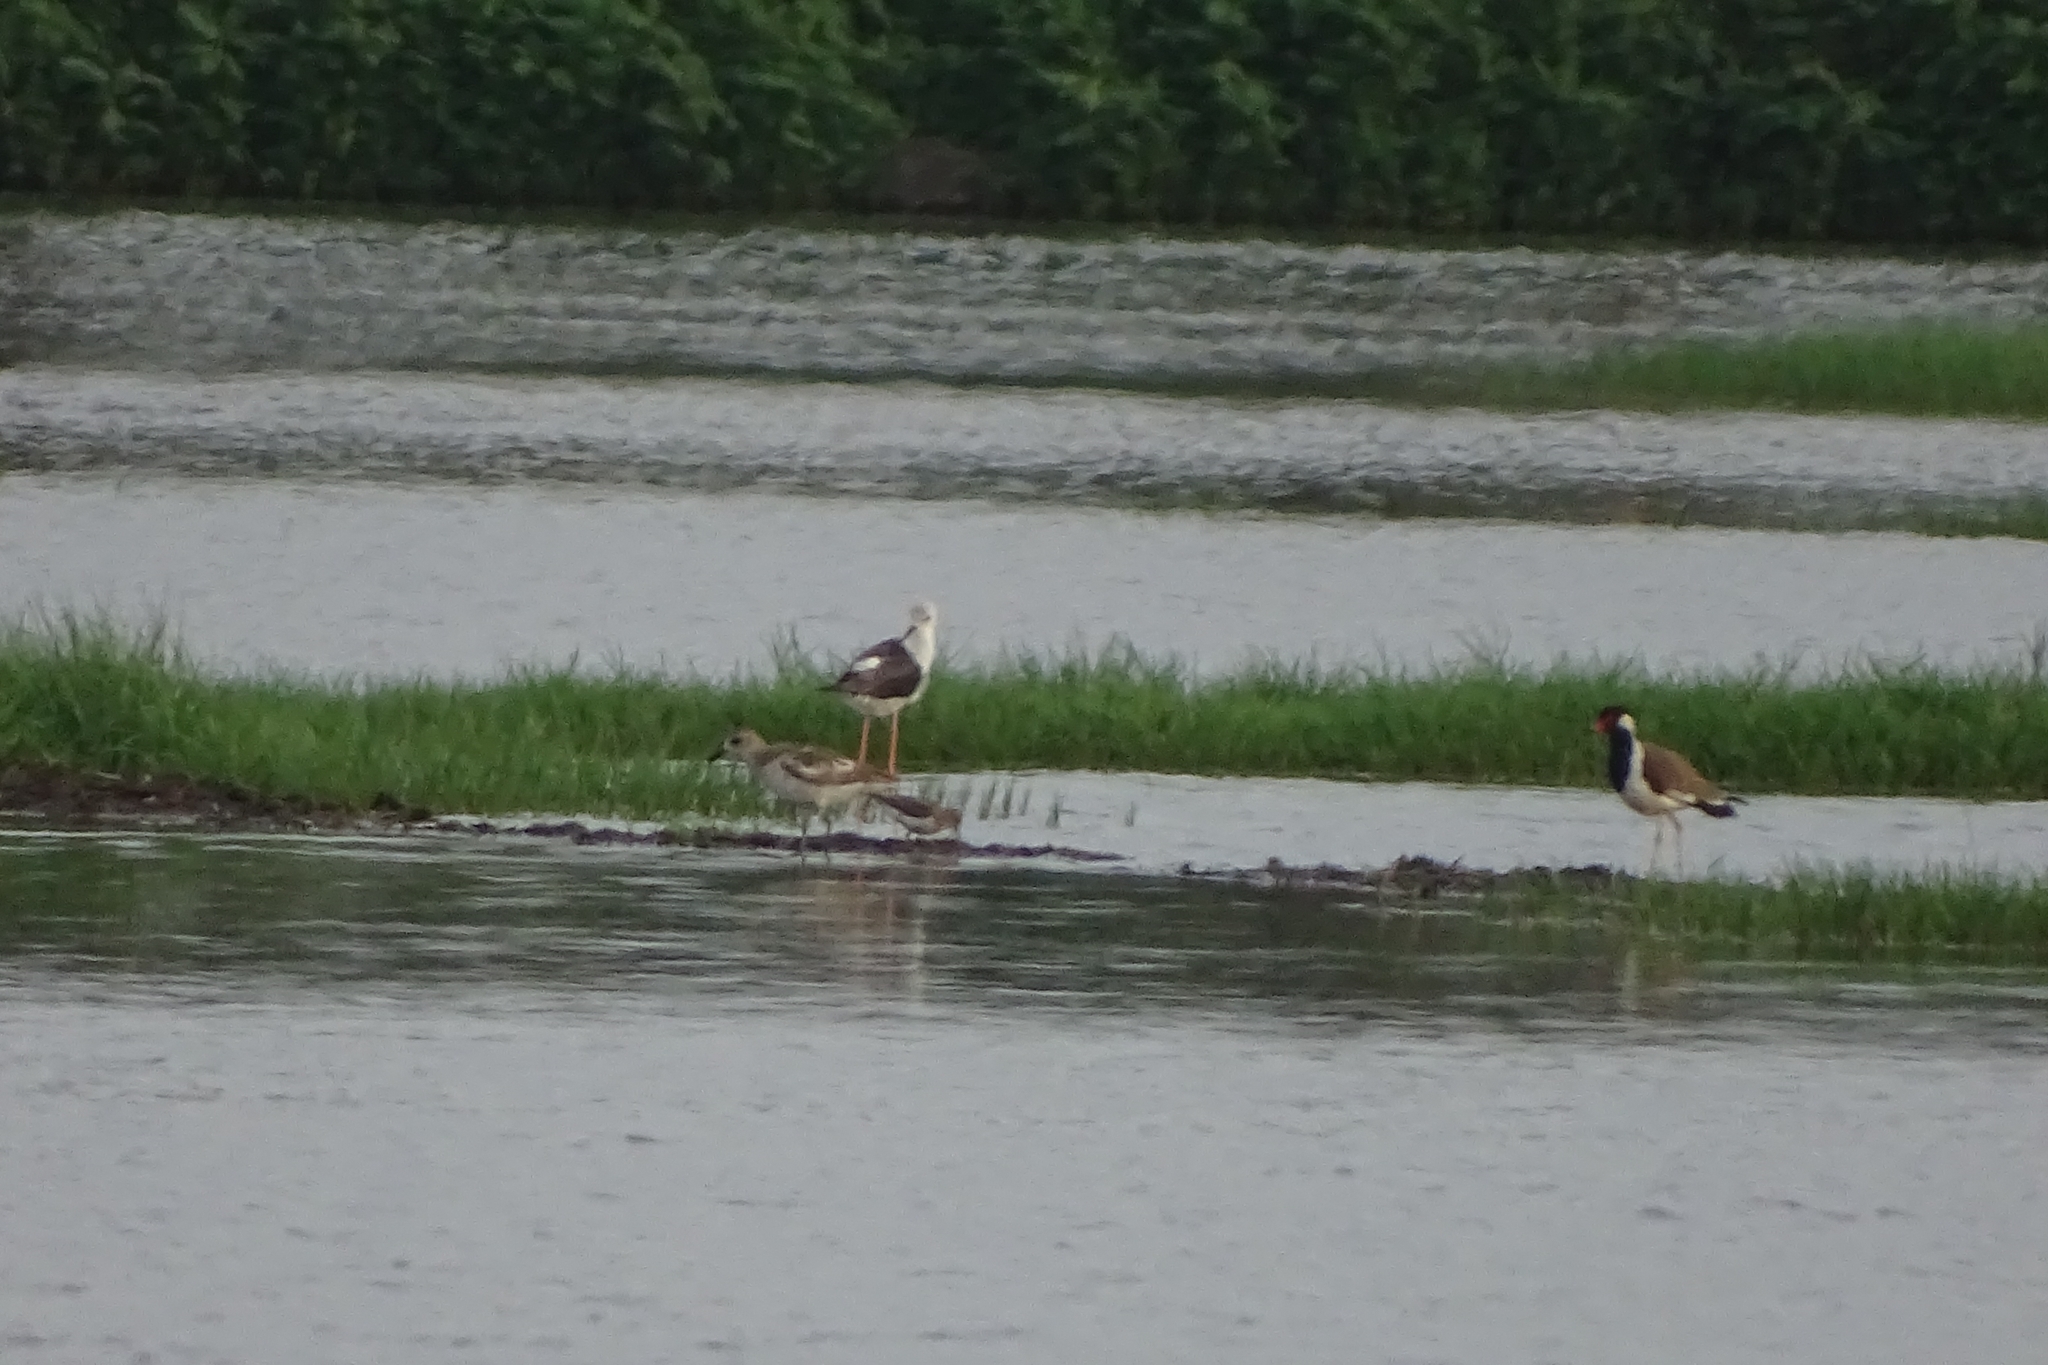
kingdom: Animalia
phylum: Chordata
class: Aves
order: Charadriiformes
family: Charadriidae
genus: Pluvialis
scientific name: Pluvialis squatarola
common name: Grey plover
